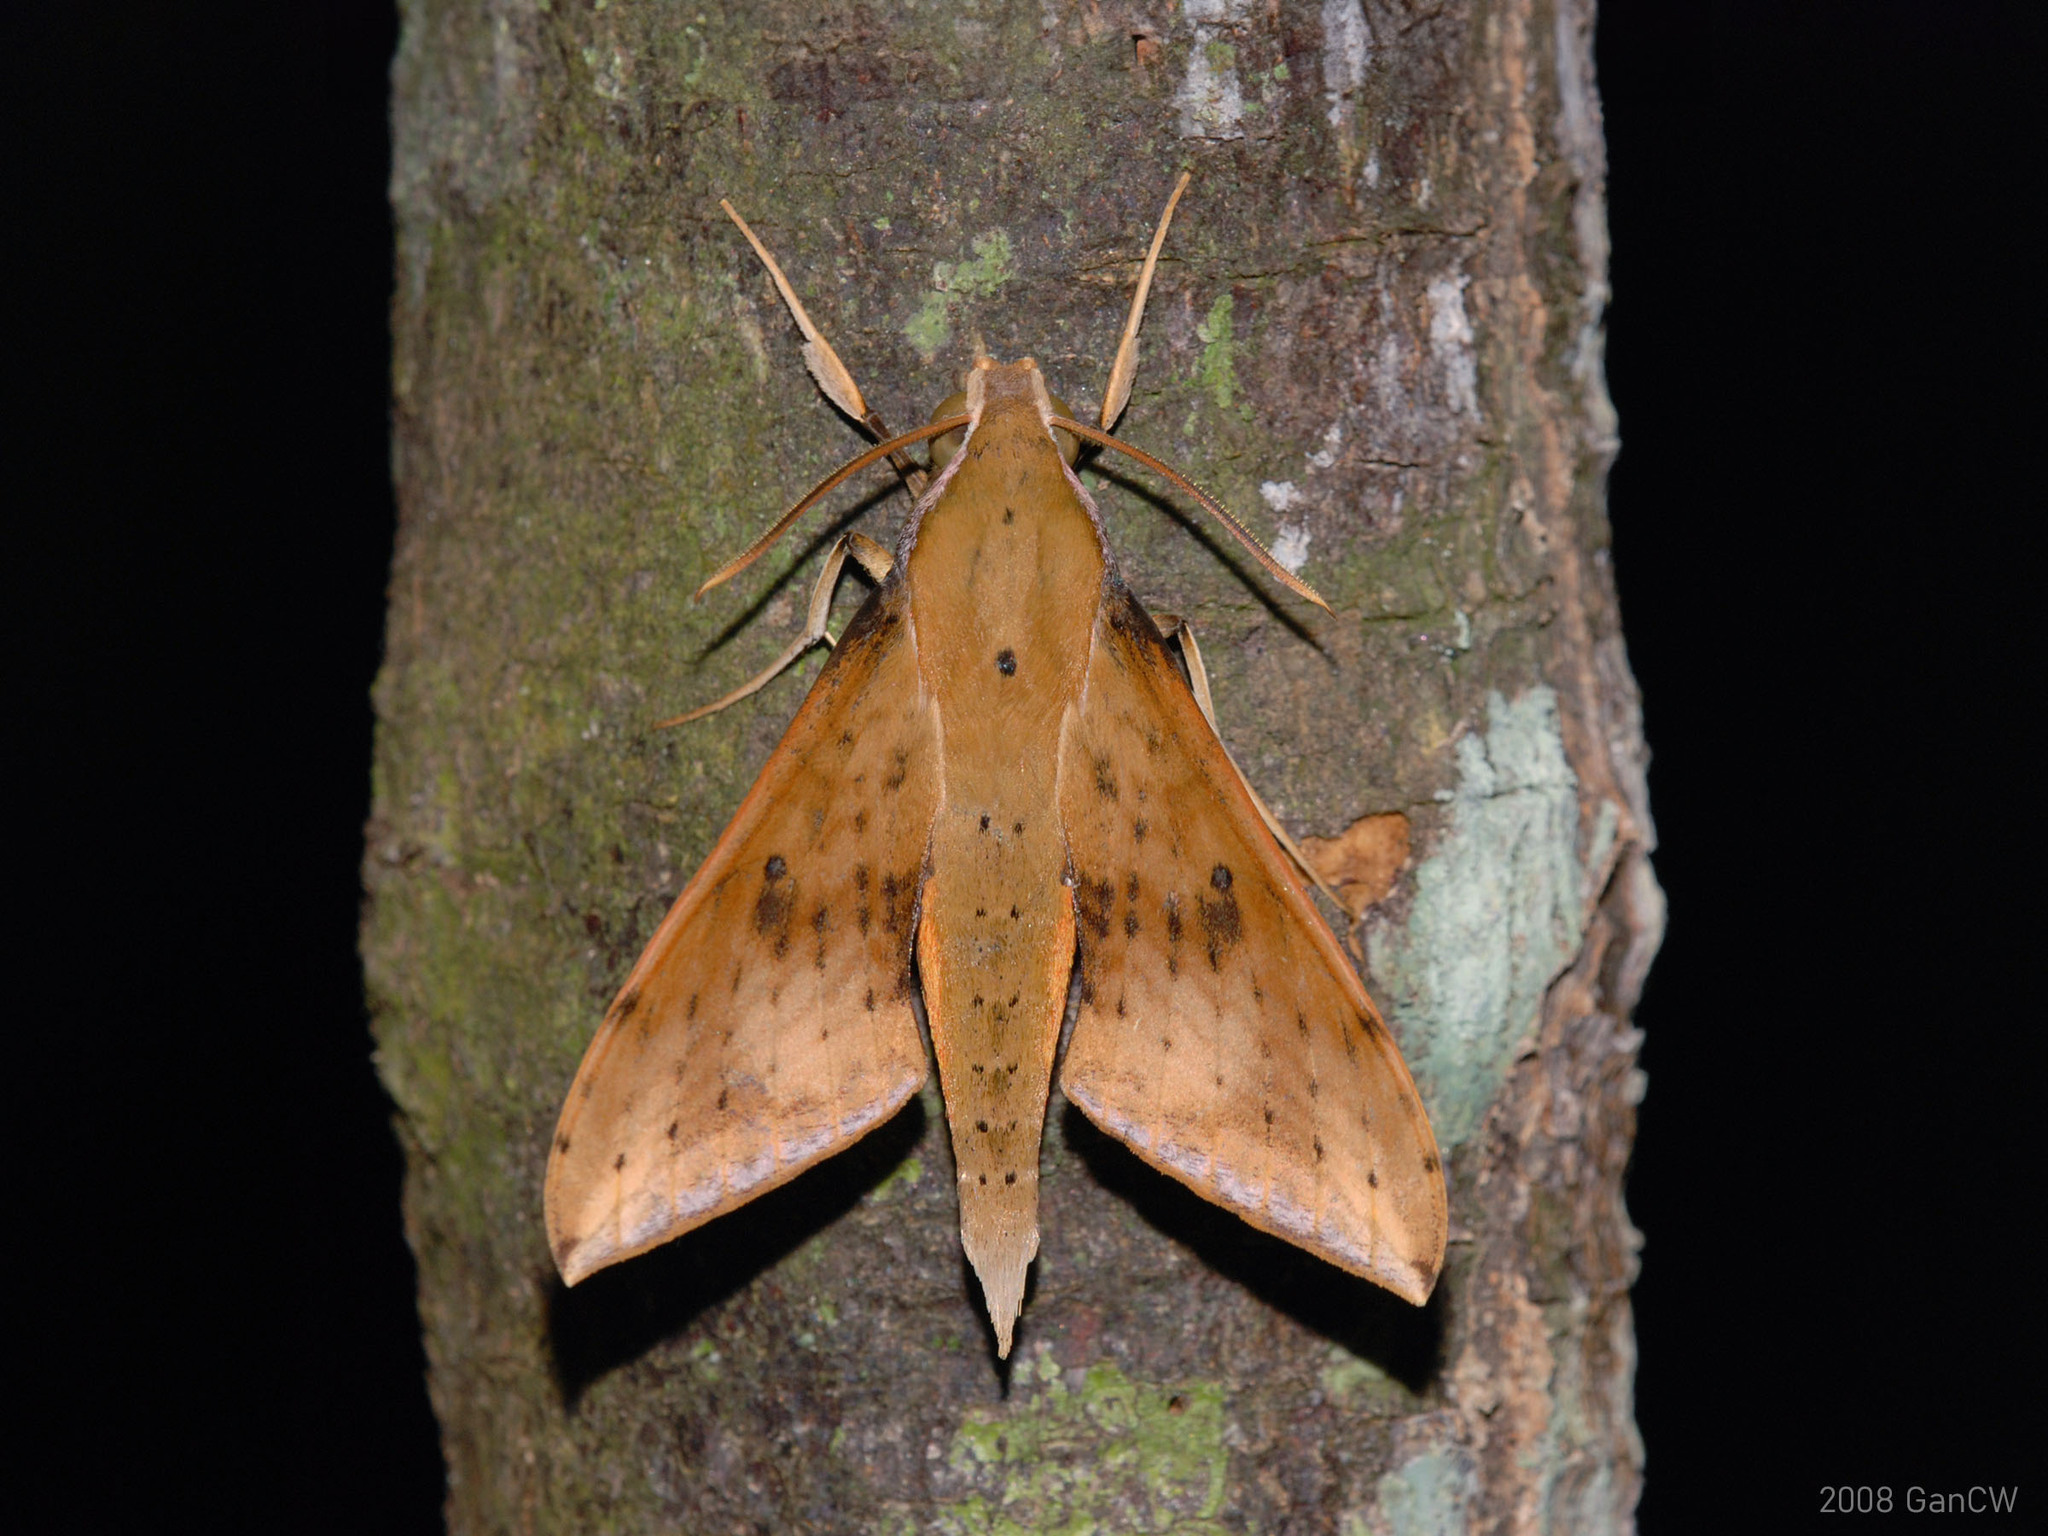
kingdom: Animalia
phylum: Arthropoda
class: Insecta
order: Lepidoptera
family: Sphingidae
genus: Rhagastis
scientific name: Rhagastis castor
